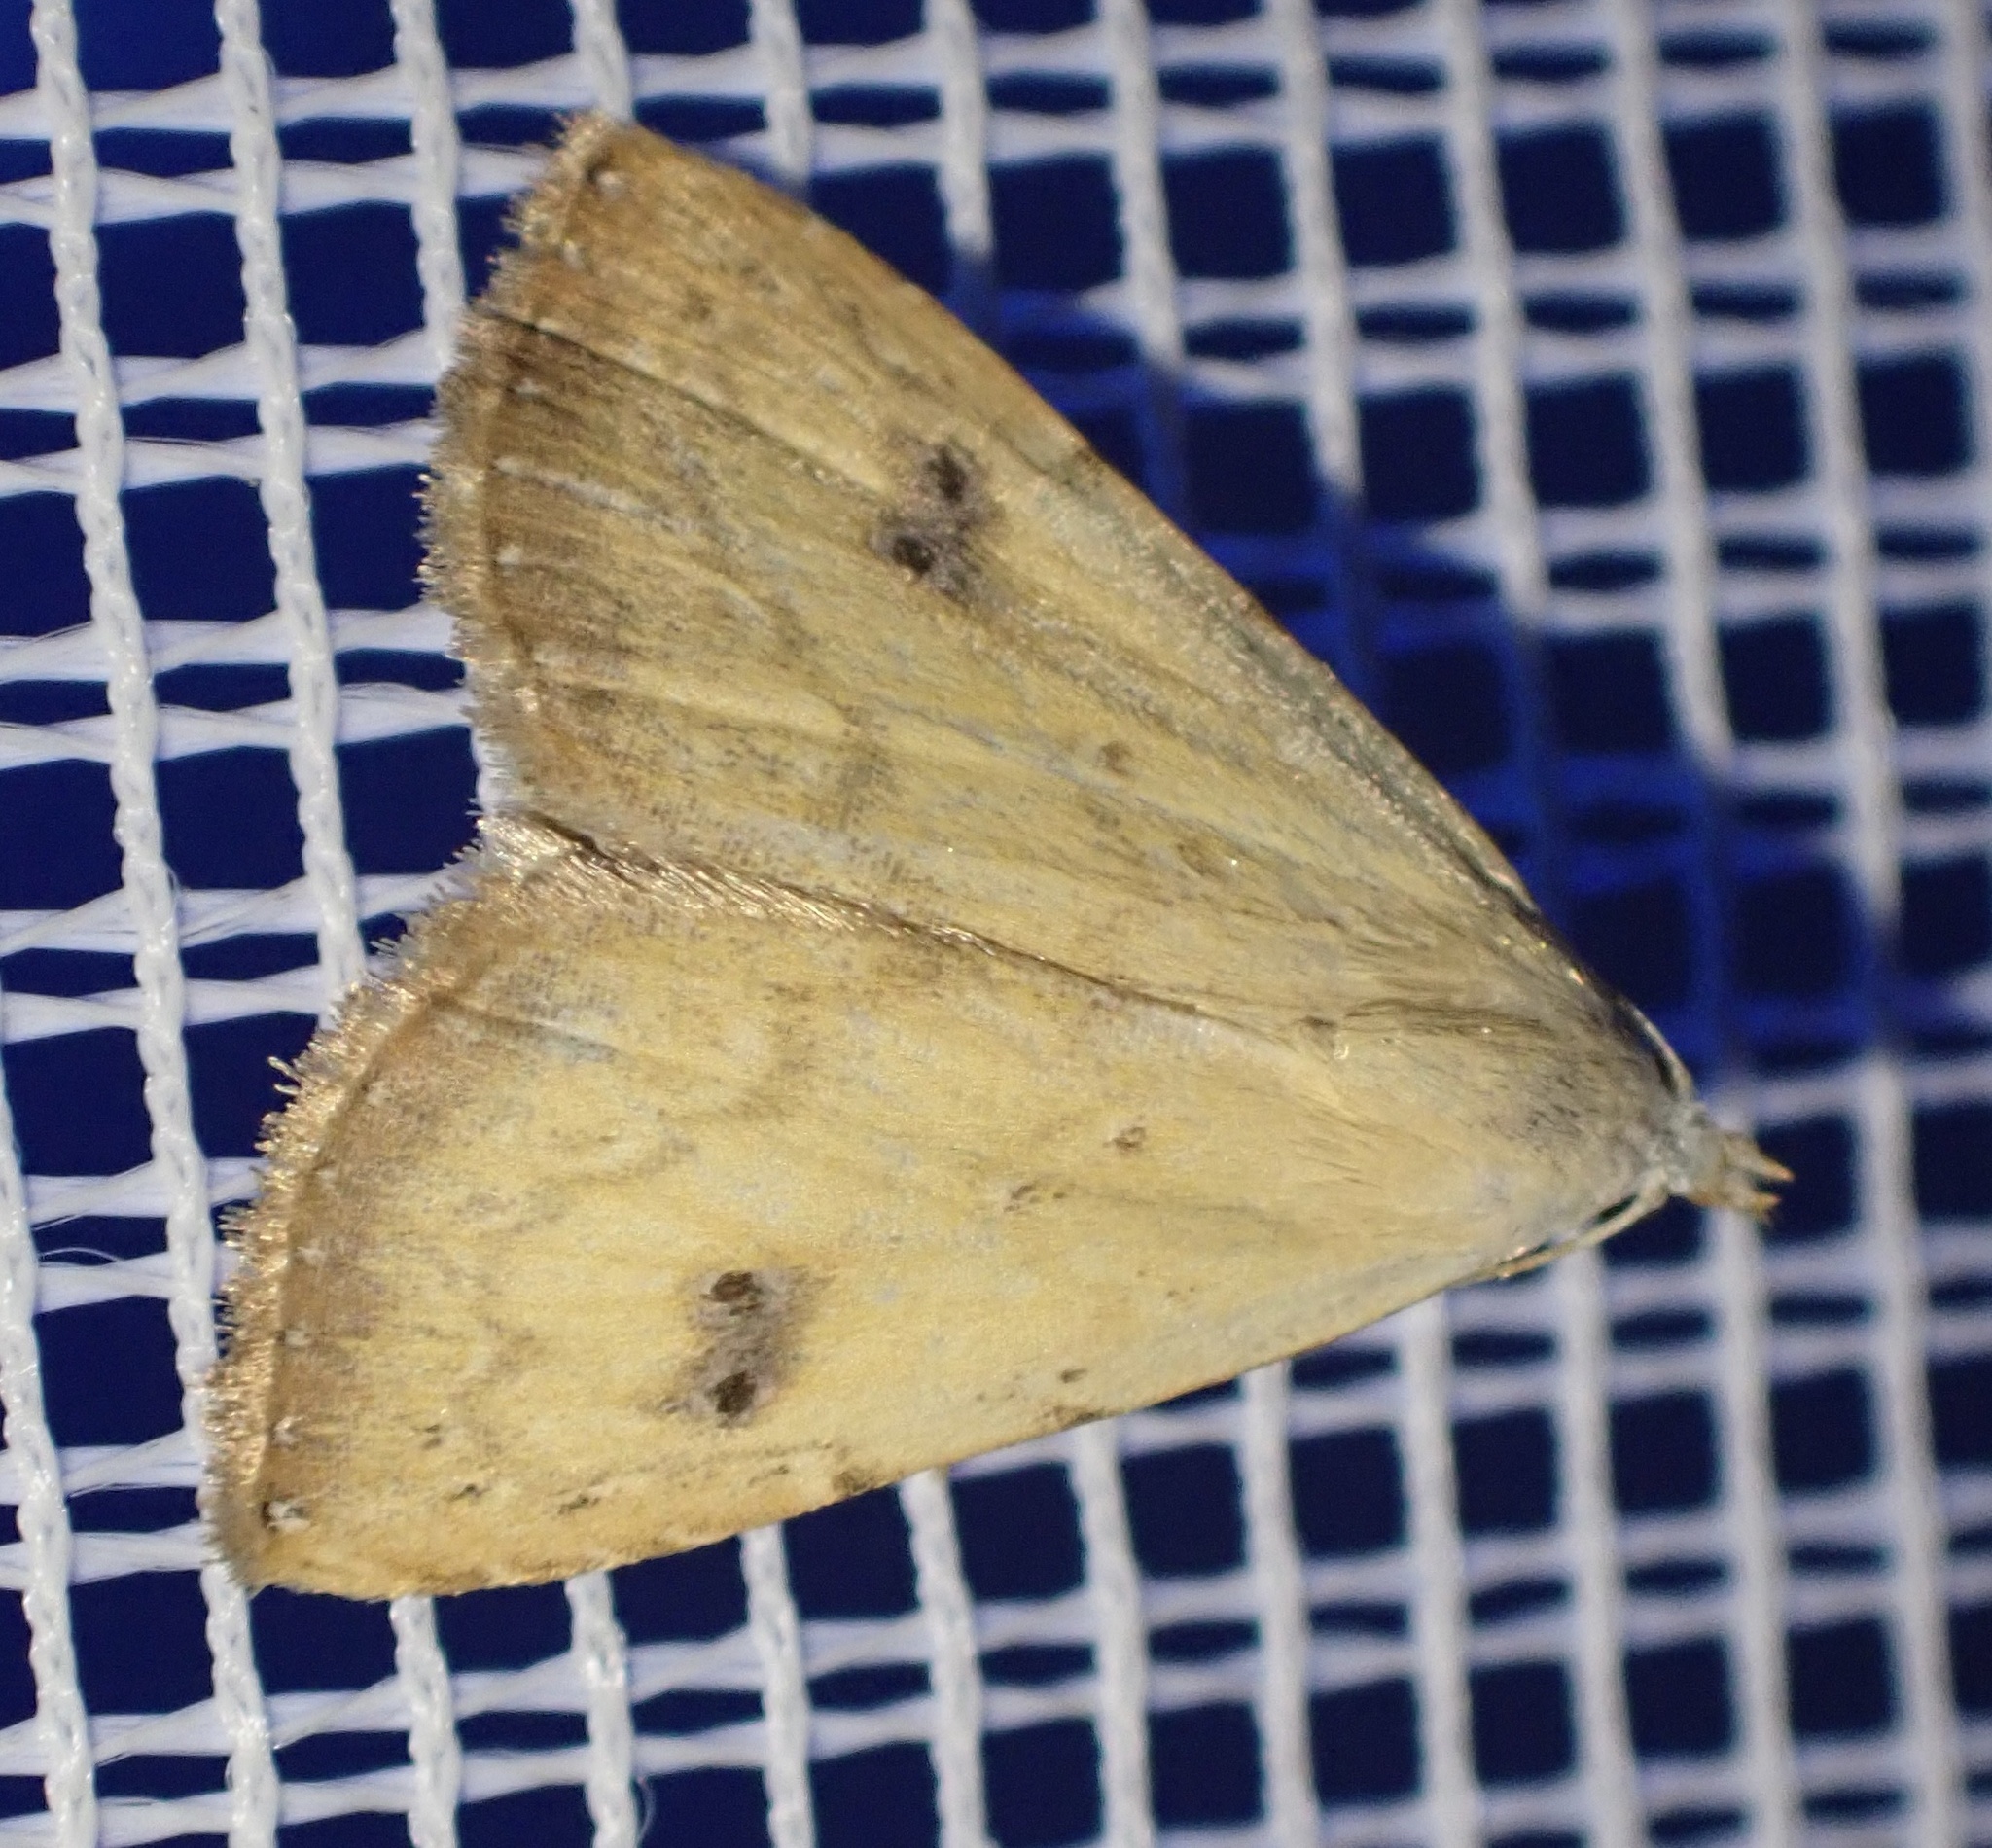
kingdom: Animalia
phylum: Arthropoda
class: Insecta
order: Lepidoptera
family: Erebidae
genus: Rivula
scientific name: Rivula sericealis
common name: Straw dot
